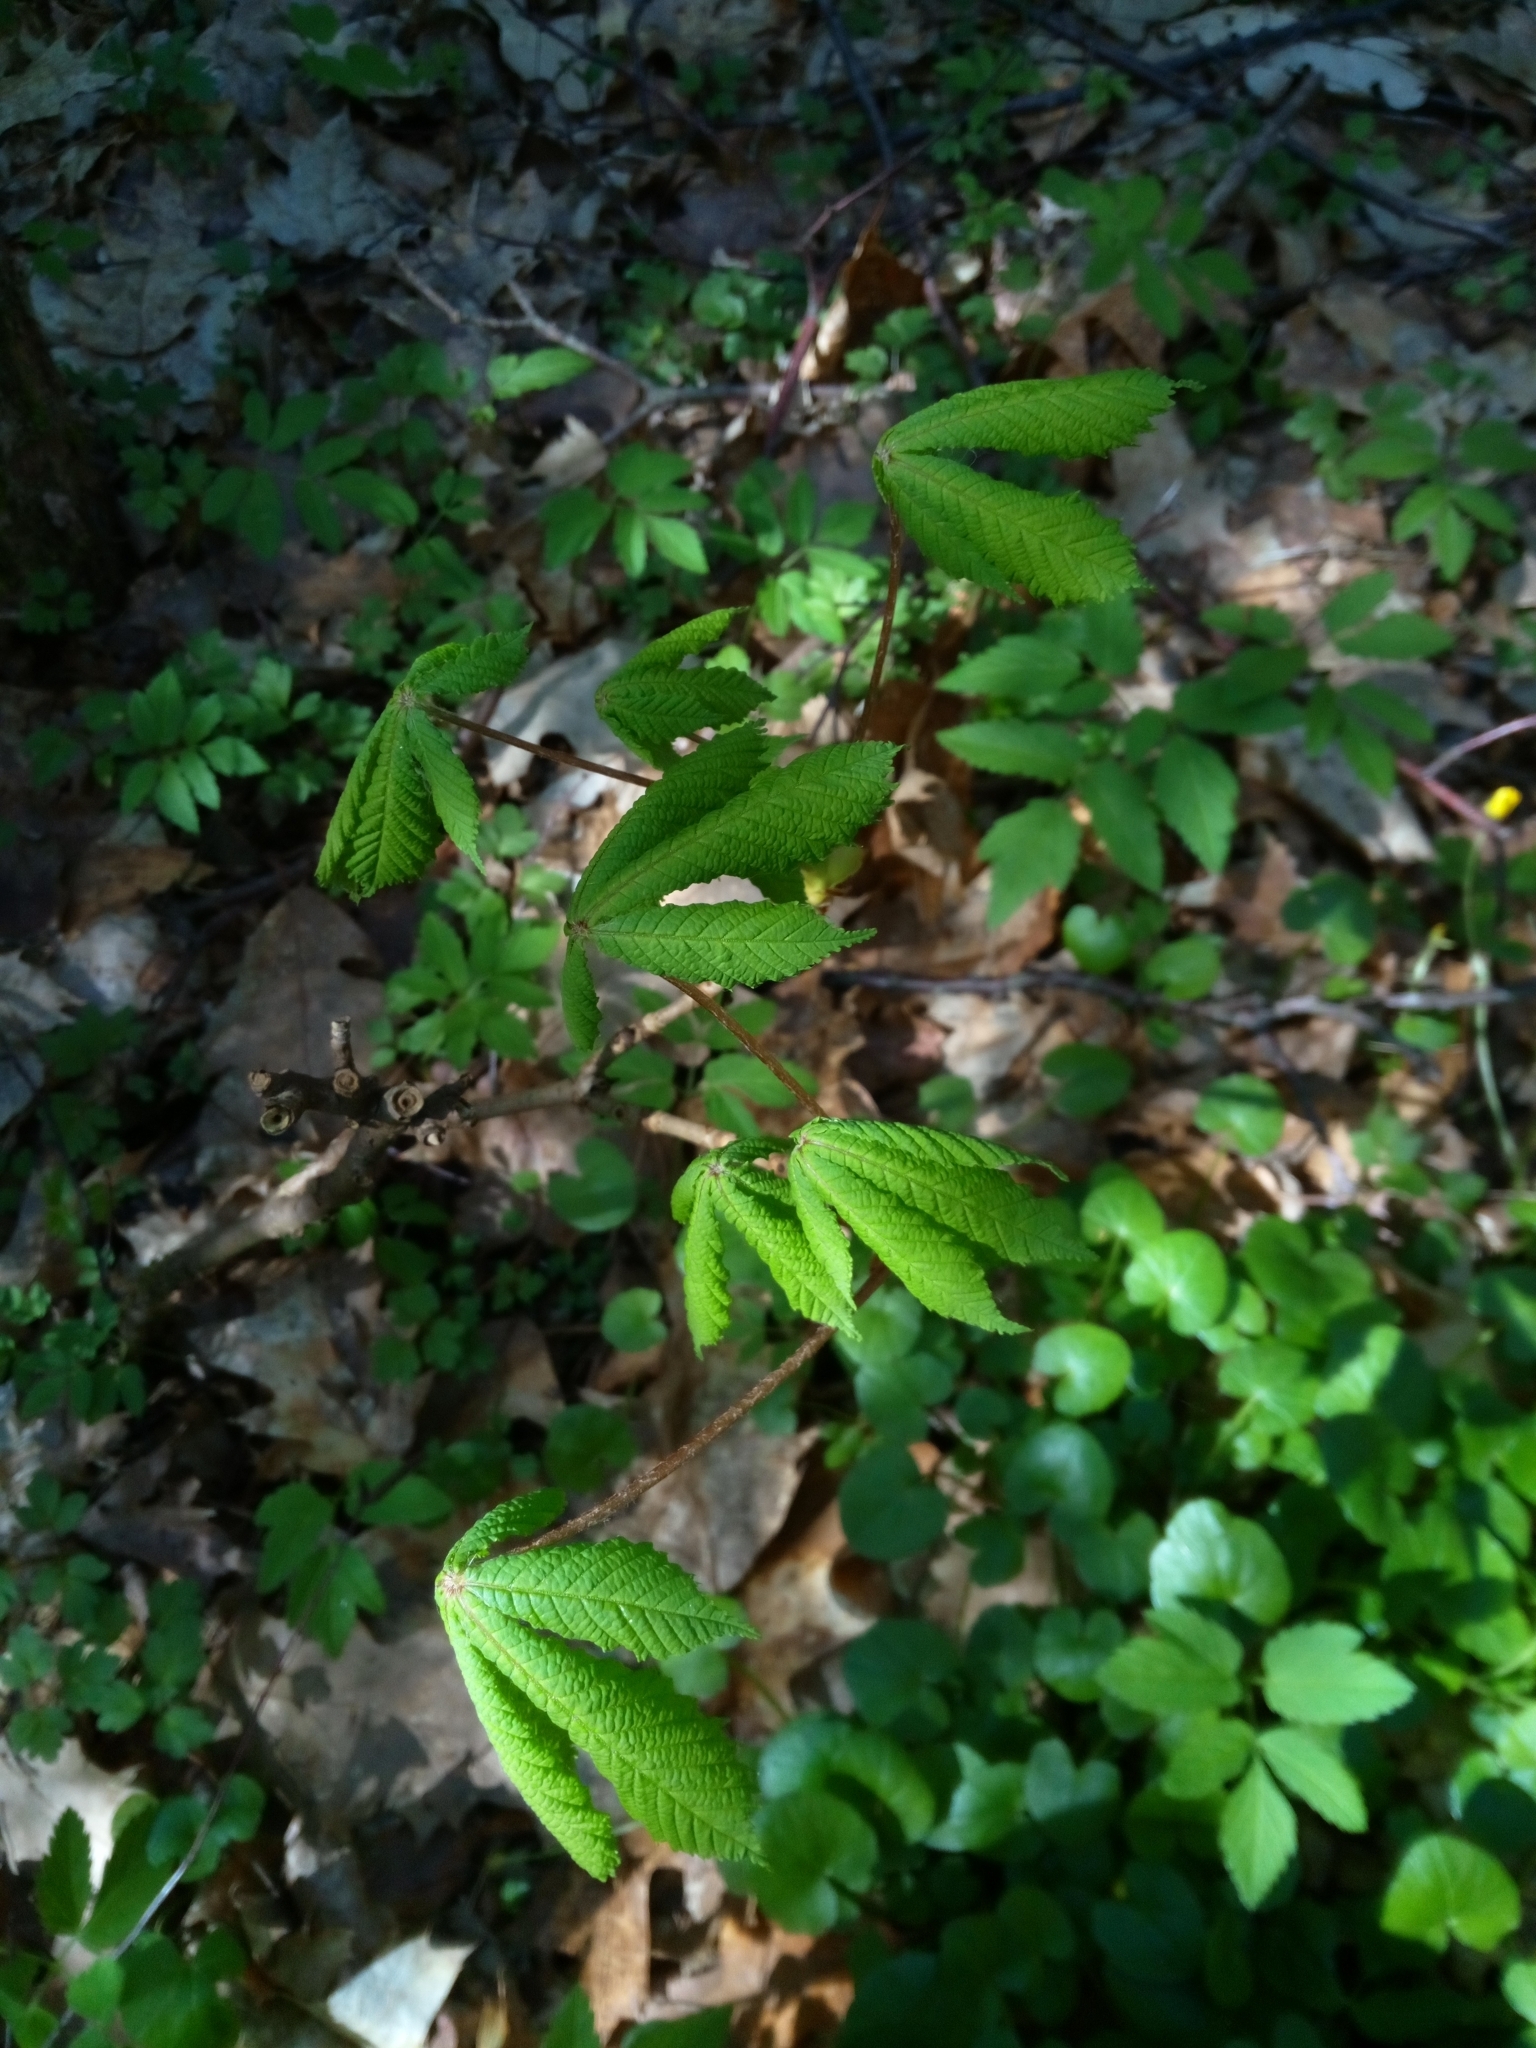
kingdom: Plantae
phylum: Tracheophyta
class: Magnoliopsida
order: Sapindales
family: Sapindaceae
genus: Aesculus
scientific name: Aesculus hippocastanum
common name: Horse-chestnut
